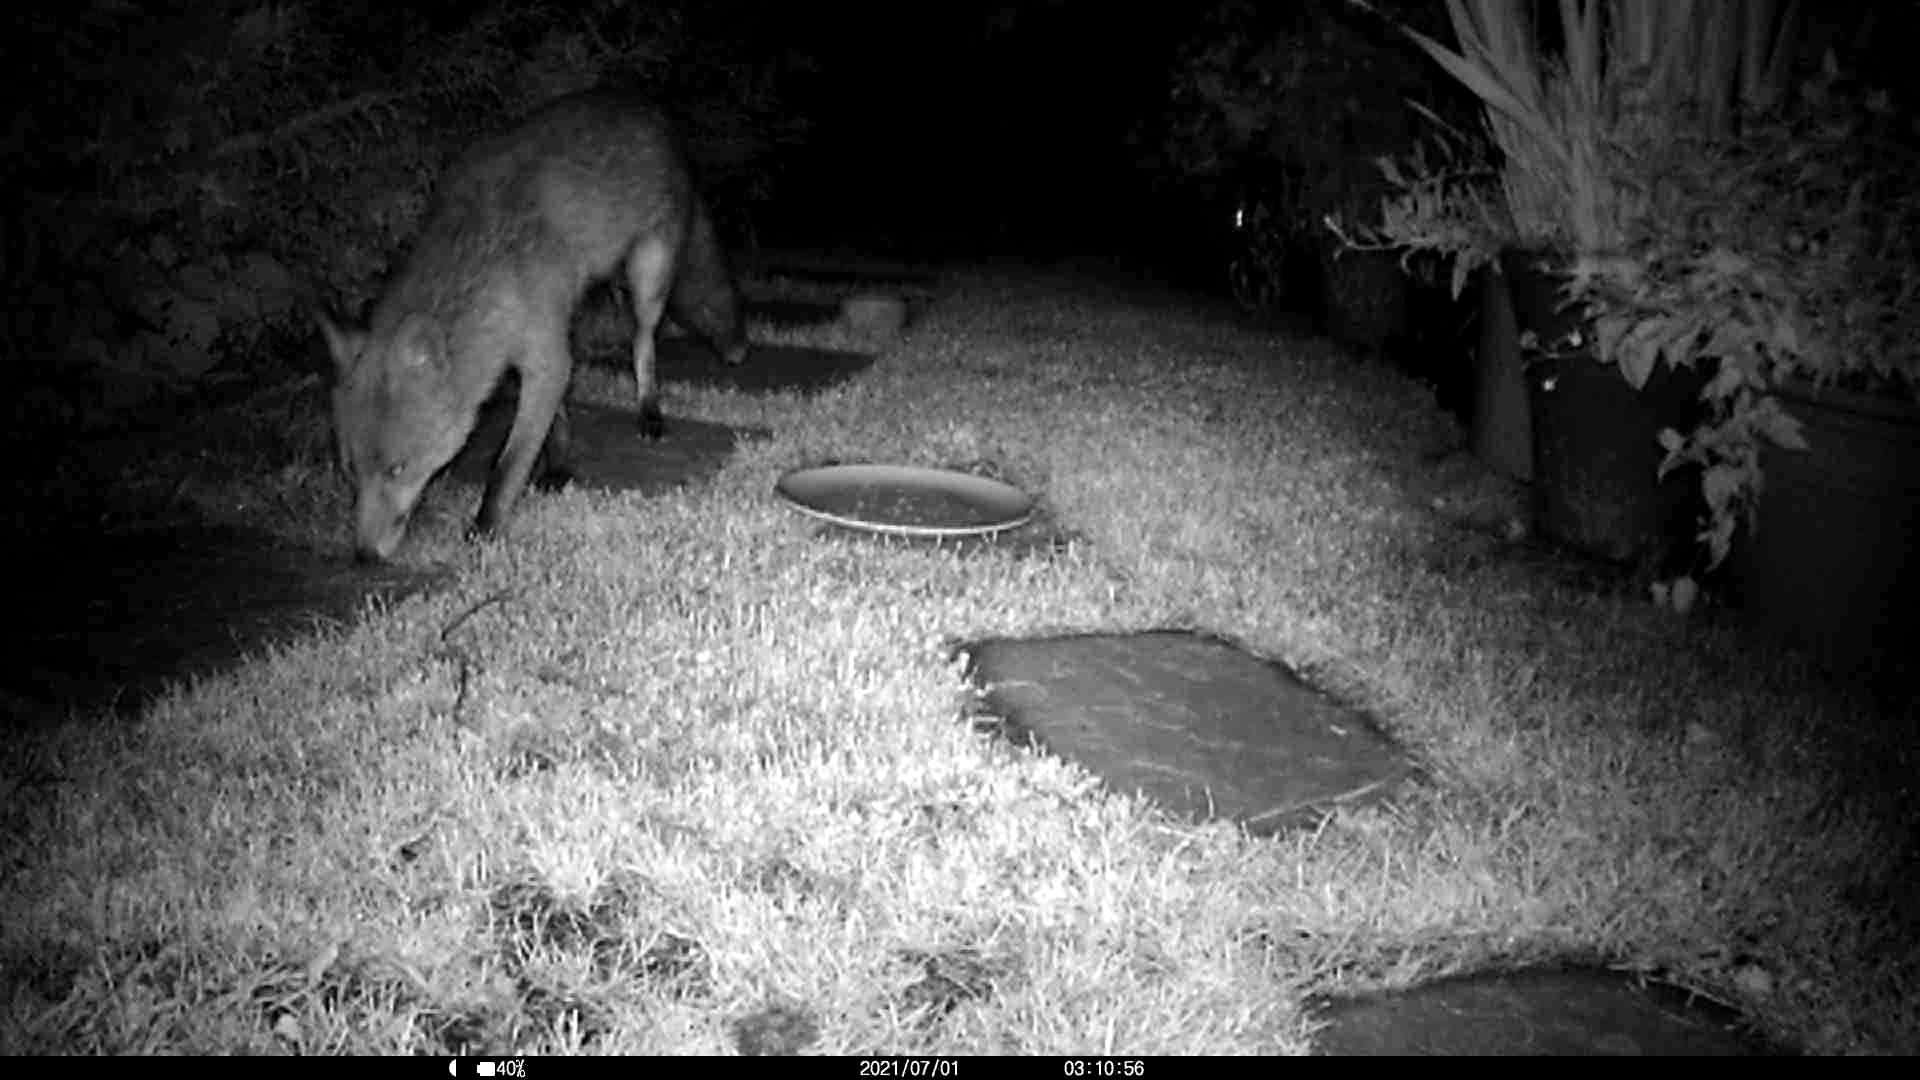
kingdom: Animalia
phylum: Chordata
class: Mammalia
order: Carnivora
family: Canidae
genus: Vulpes
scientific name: Vulpes vulpes
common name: Red fox
